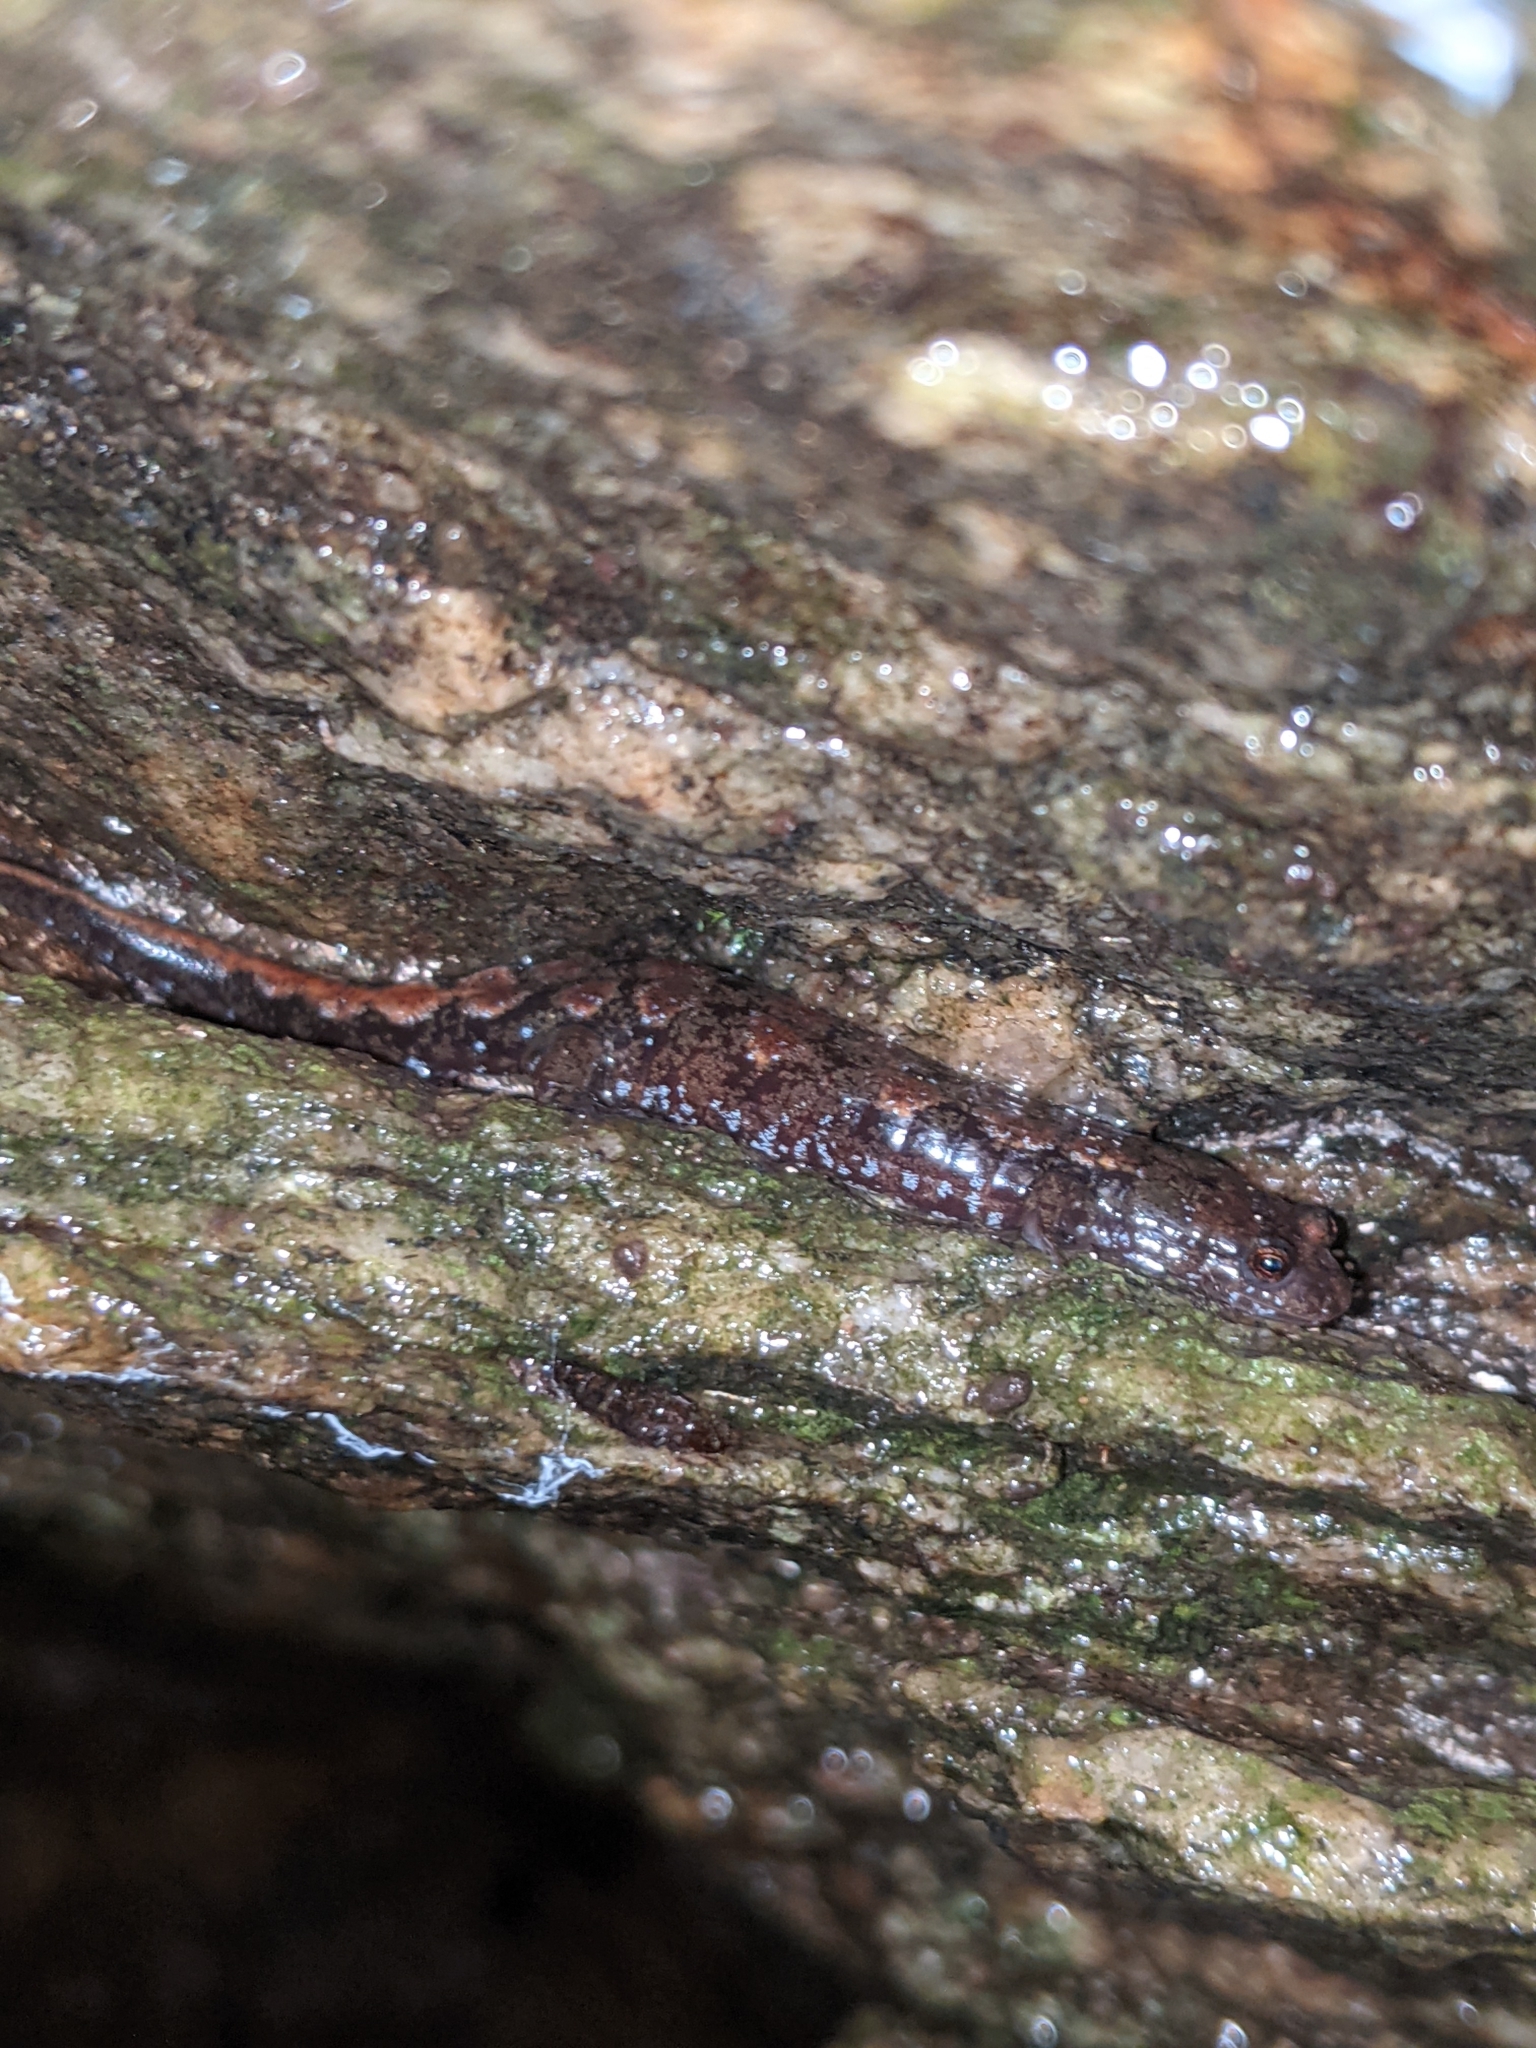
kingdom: Animalia
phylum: Chordata
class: Amphibia
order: Caudata
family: Plethodontidae
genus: Desmognathus
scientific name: Desmognathus carolinensis
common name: Carolina mountain dusky salamander
